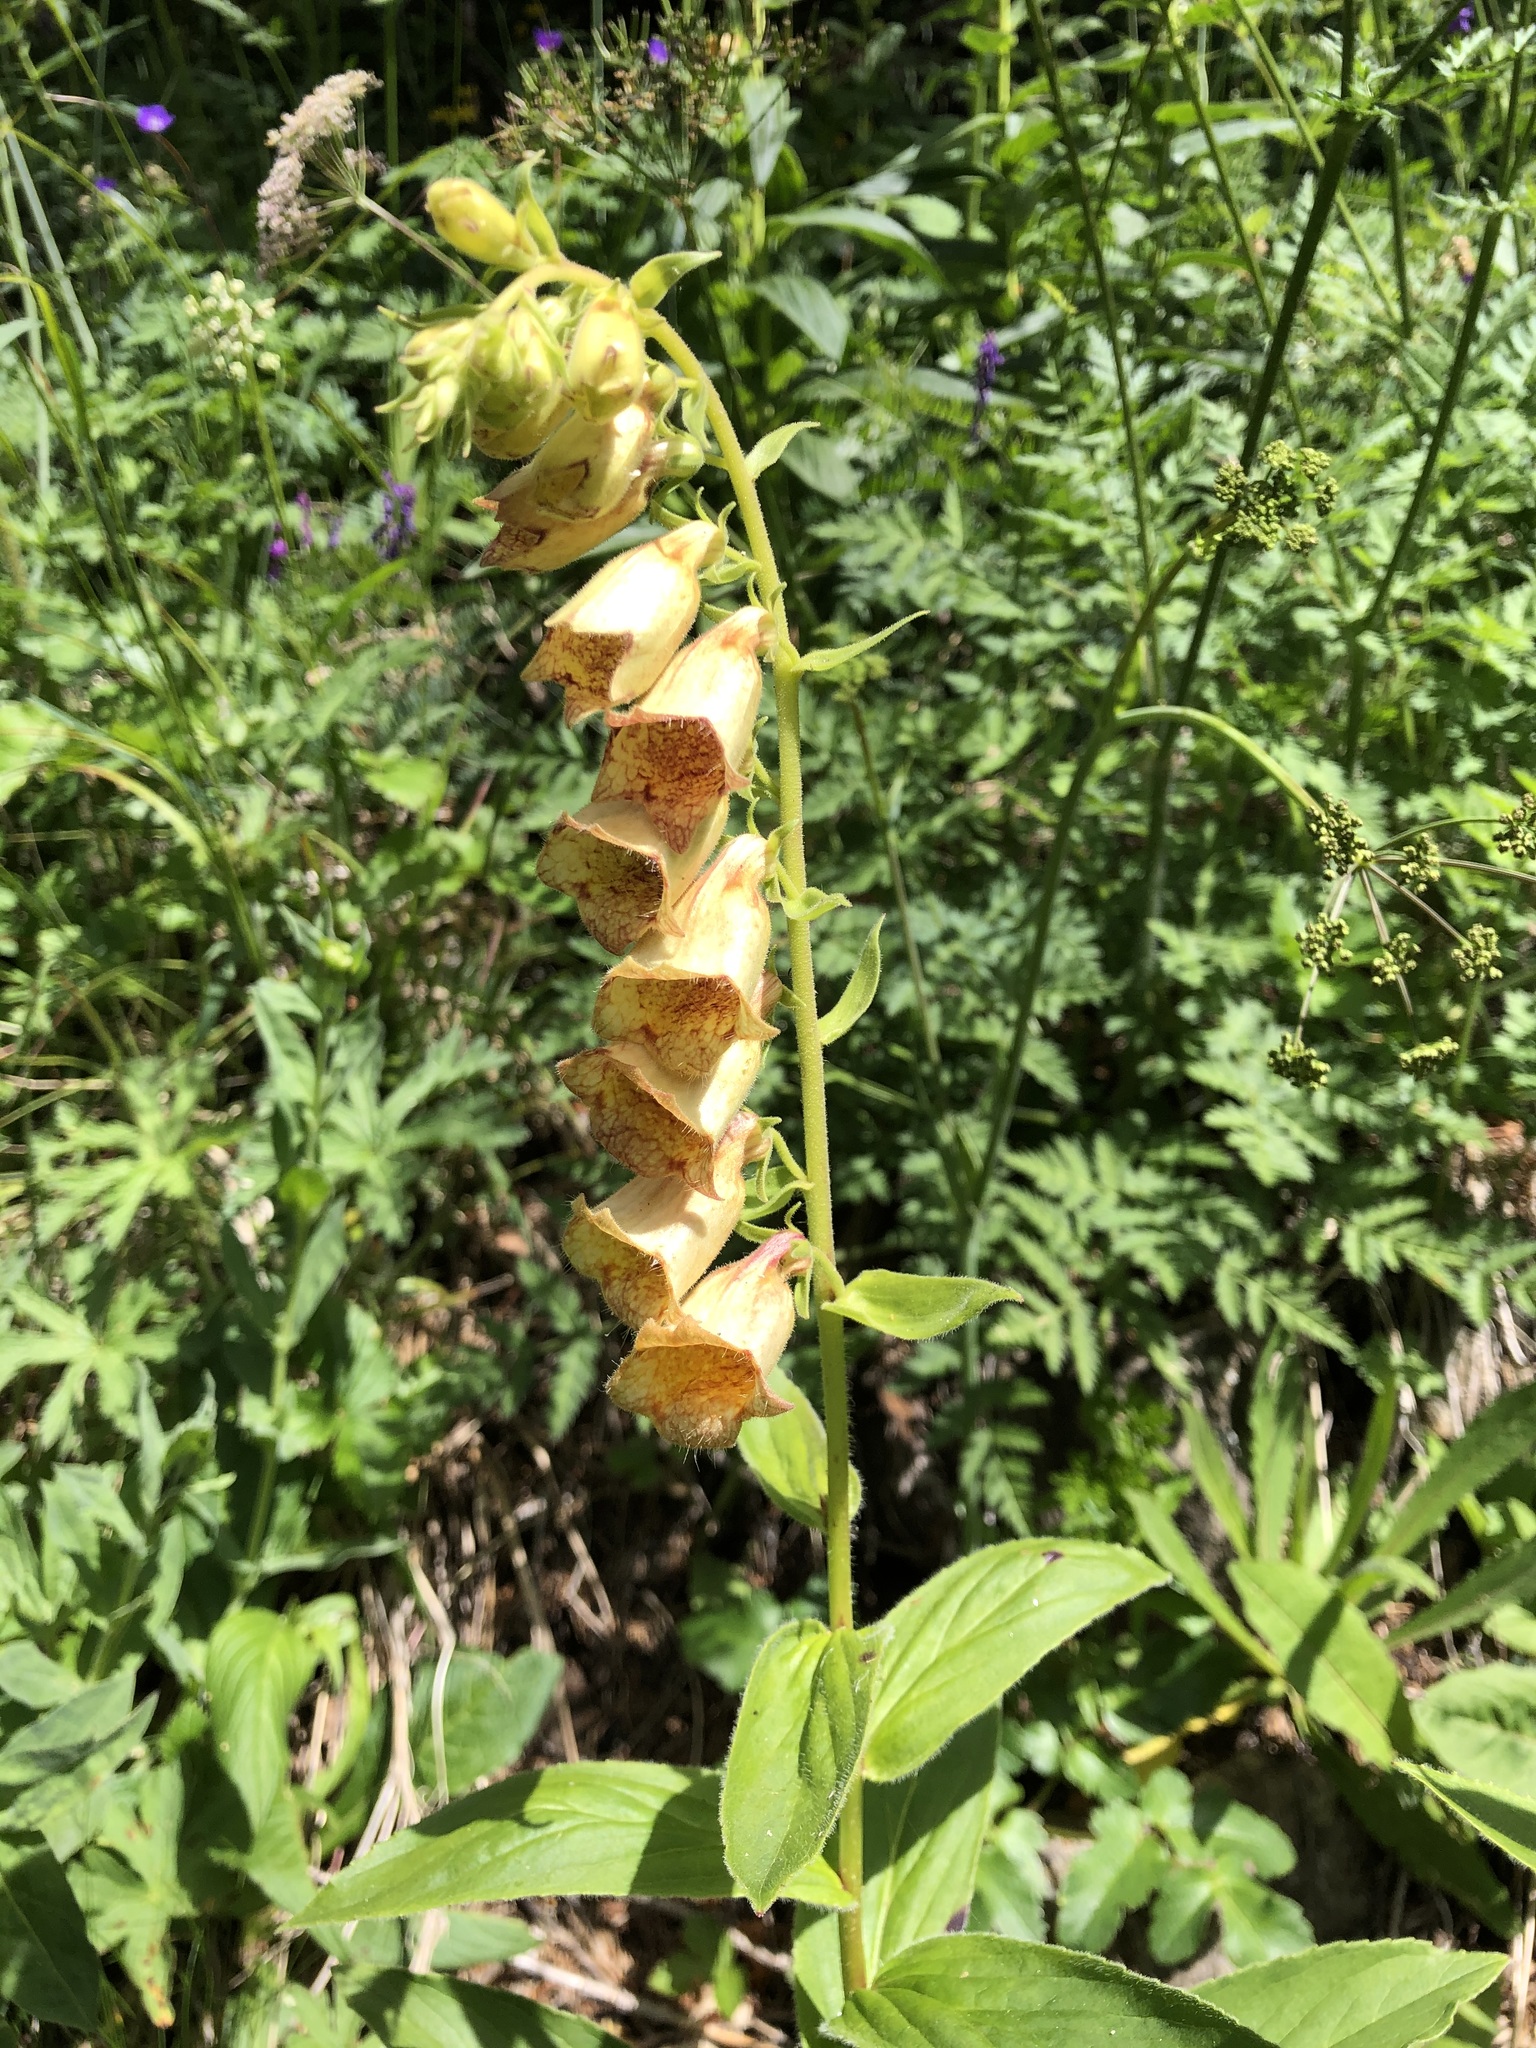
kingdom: Plantae
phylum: Tracheophyta
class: Magnoliopsida
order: Lamiales
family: Plantaginaceae
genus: Digitalis
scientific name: Digitalis grandiflora
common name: Yellow foxglove
